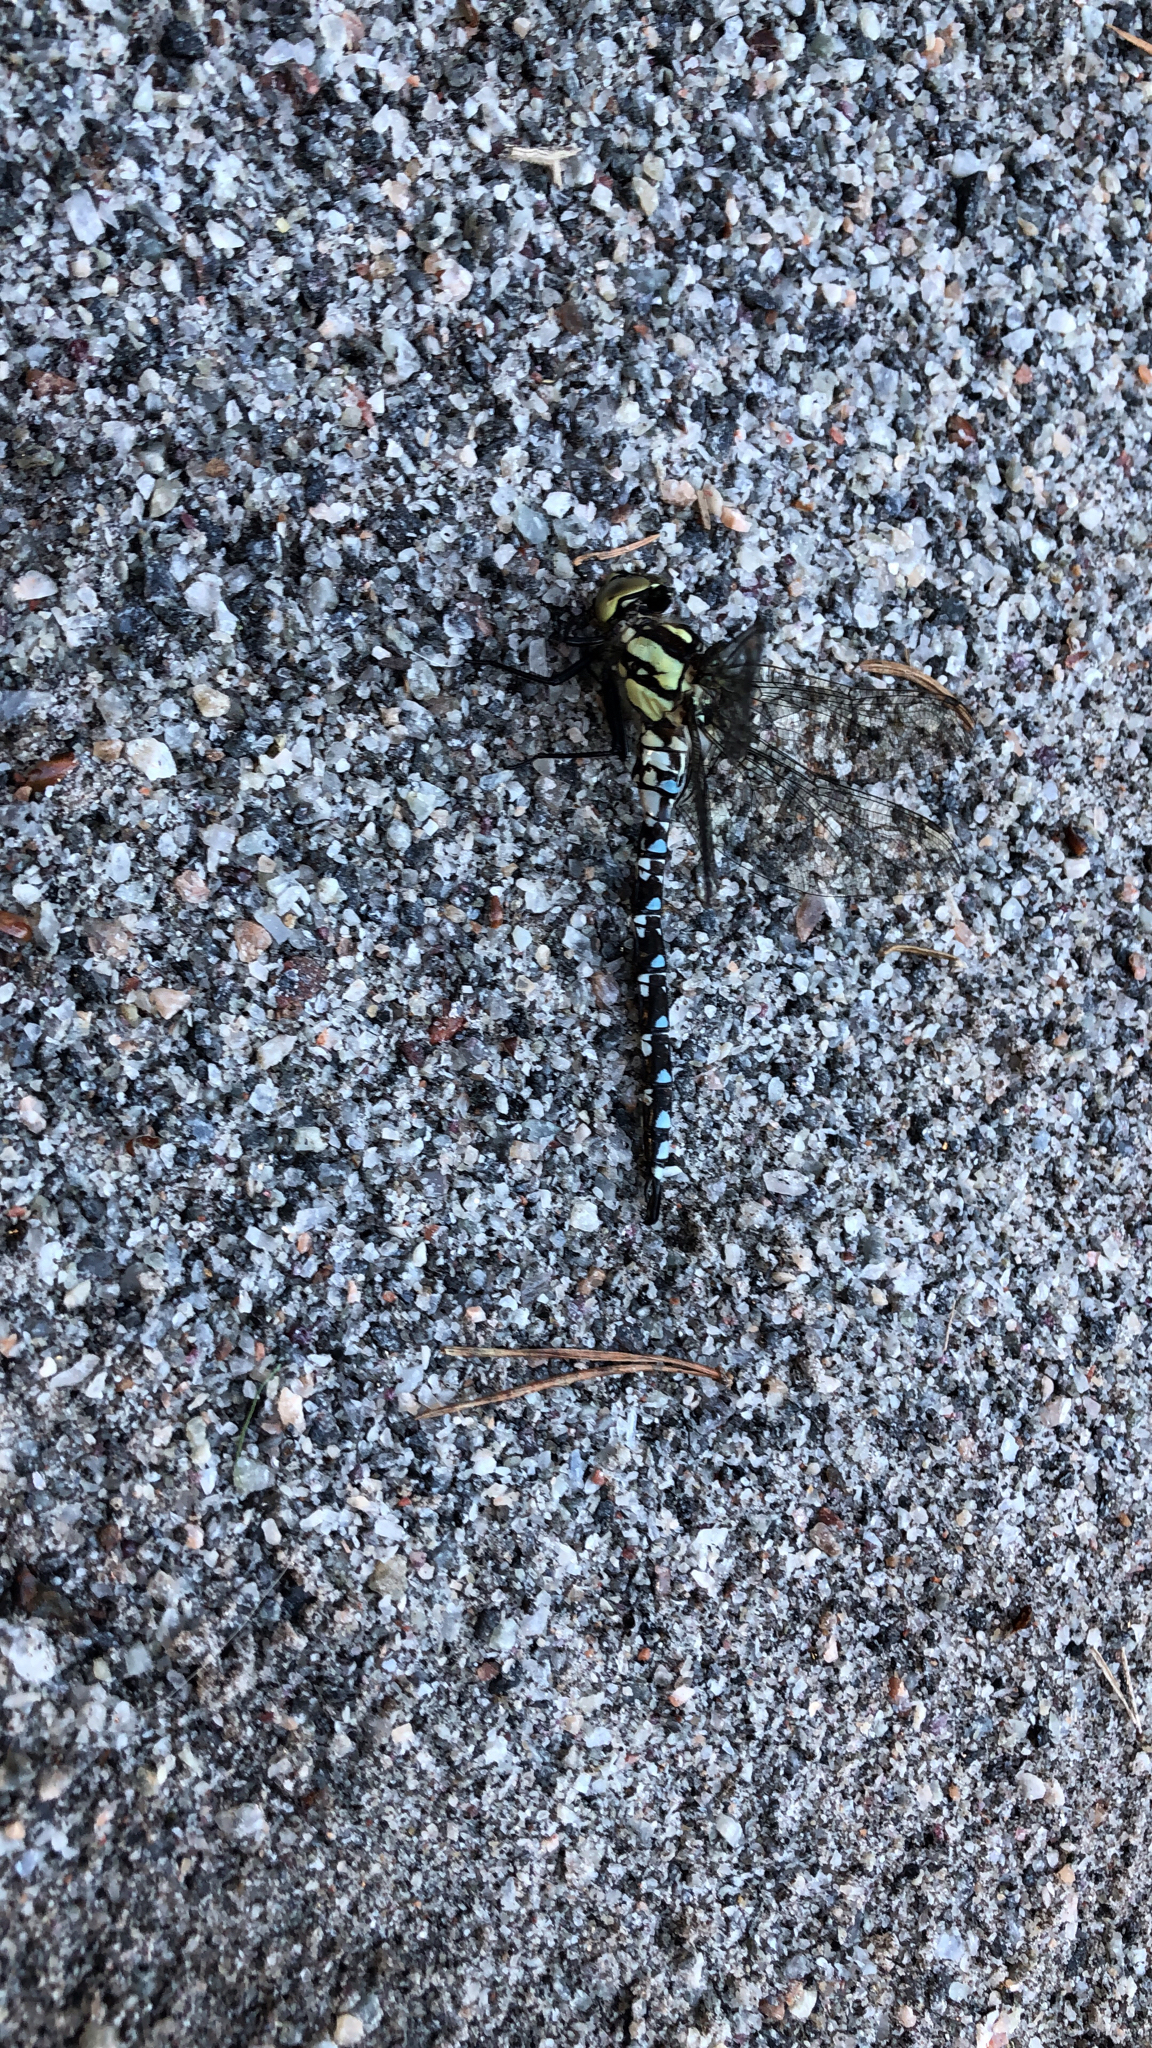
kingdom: Animalia
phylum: Arthropoda
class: Insecta
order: Odonata
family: Aeshnidae
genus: Aeshna
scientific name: Aeshna cyanea
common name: Southern hawker
